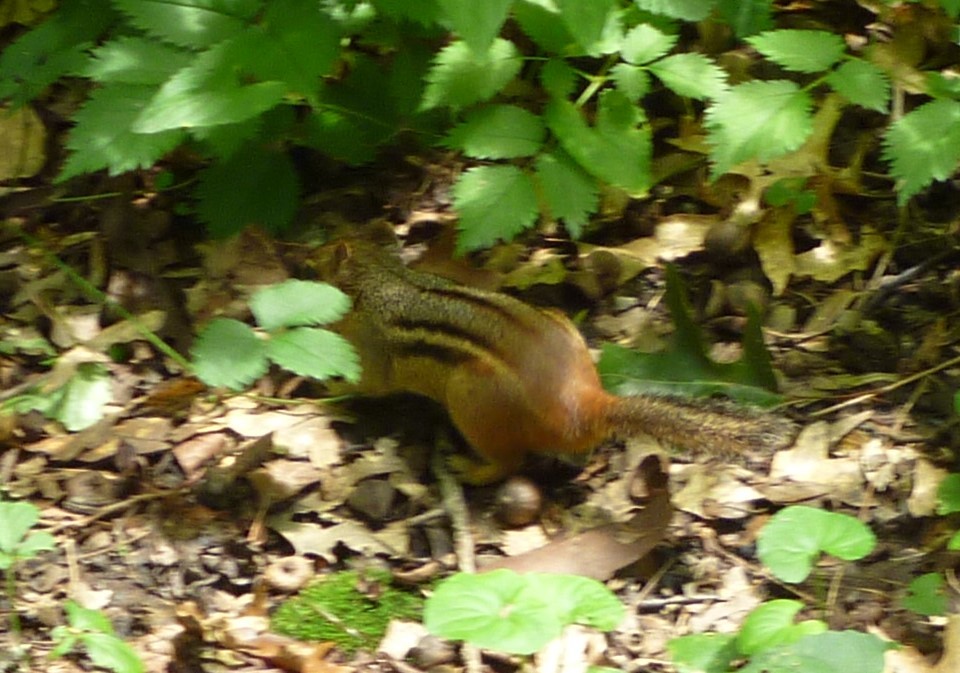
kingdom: Animalia
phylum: Chordata
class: Mammalia
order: Rodentia
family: Sciuridae
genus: Tamias
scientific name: Tamias striatus
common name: Eastern chipmunk
